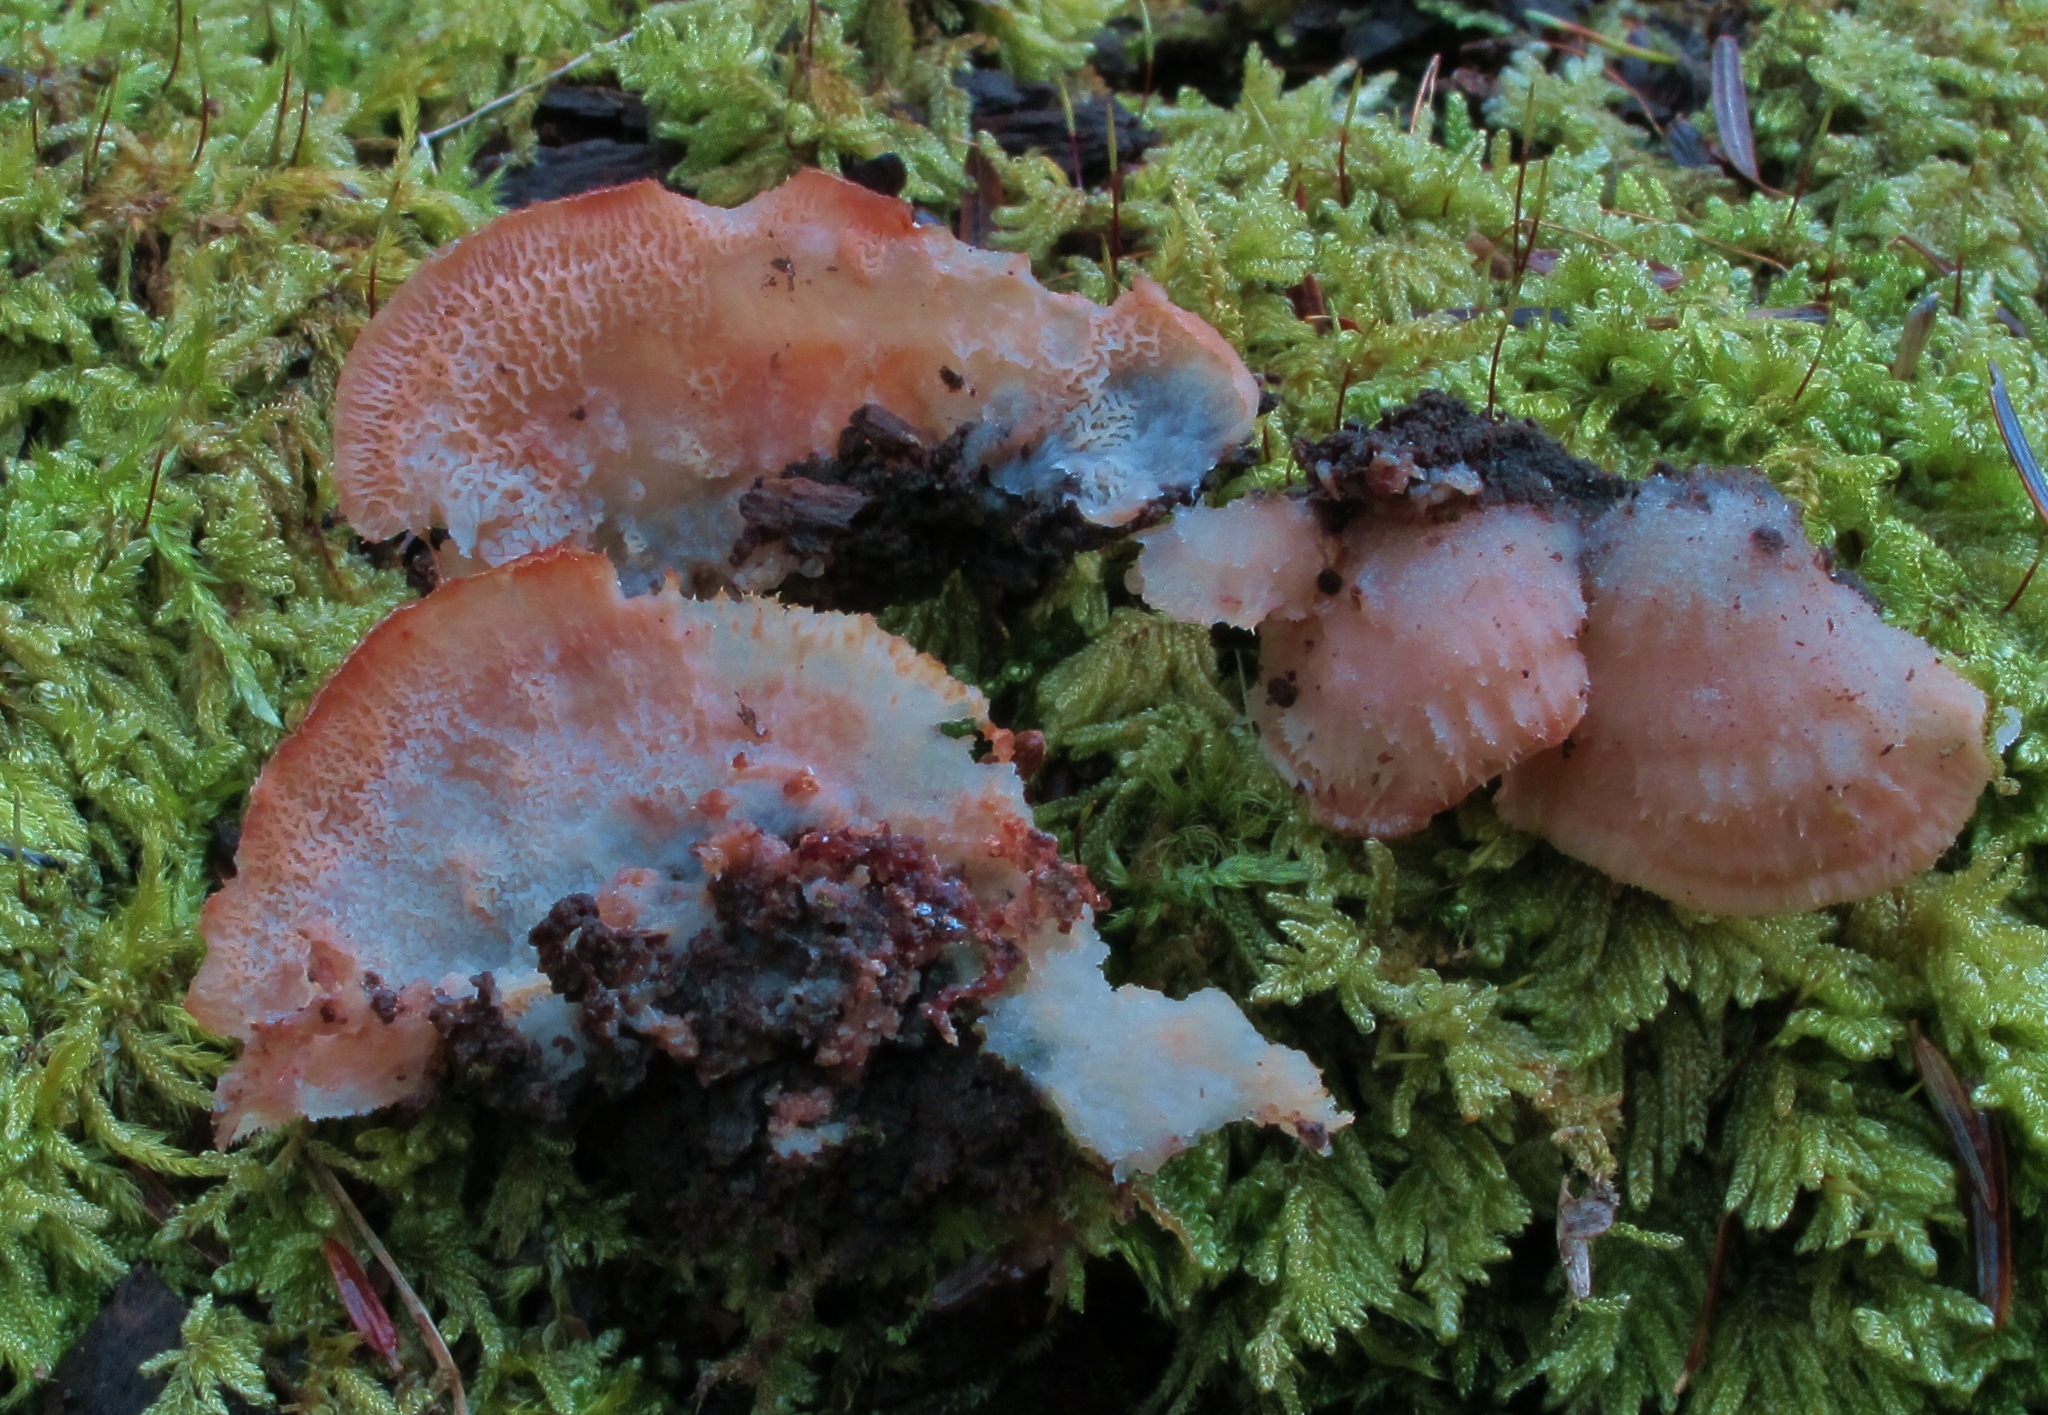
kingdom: Fungi
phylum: Basidiomycota
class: Agaricomycetes
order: Polyporales
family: Meruliaceae
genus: Phlebia
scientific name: Phlebia tremellosa
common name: Jelly rot
